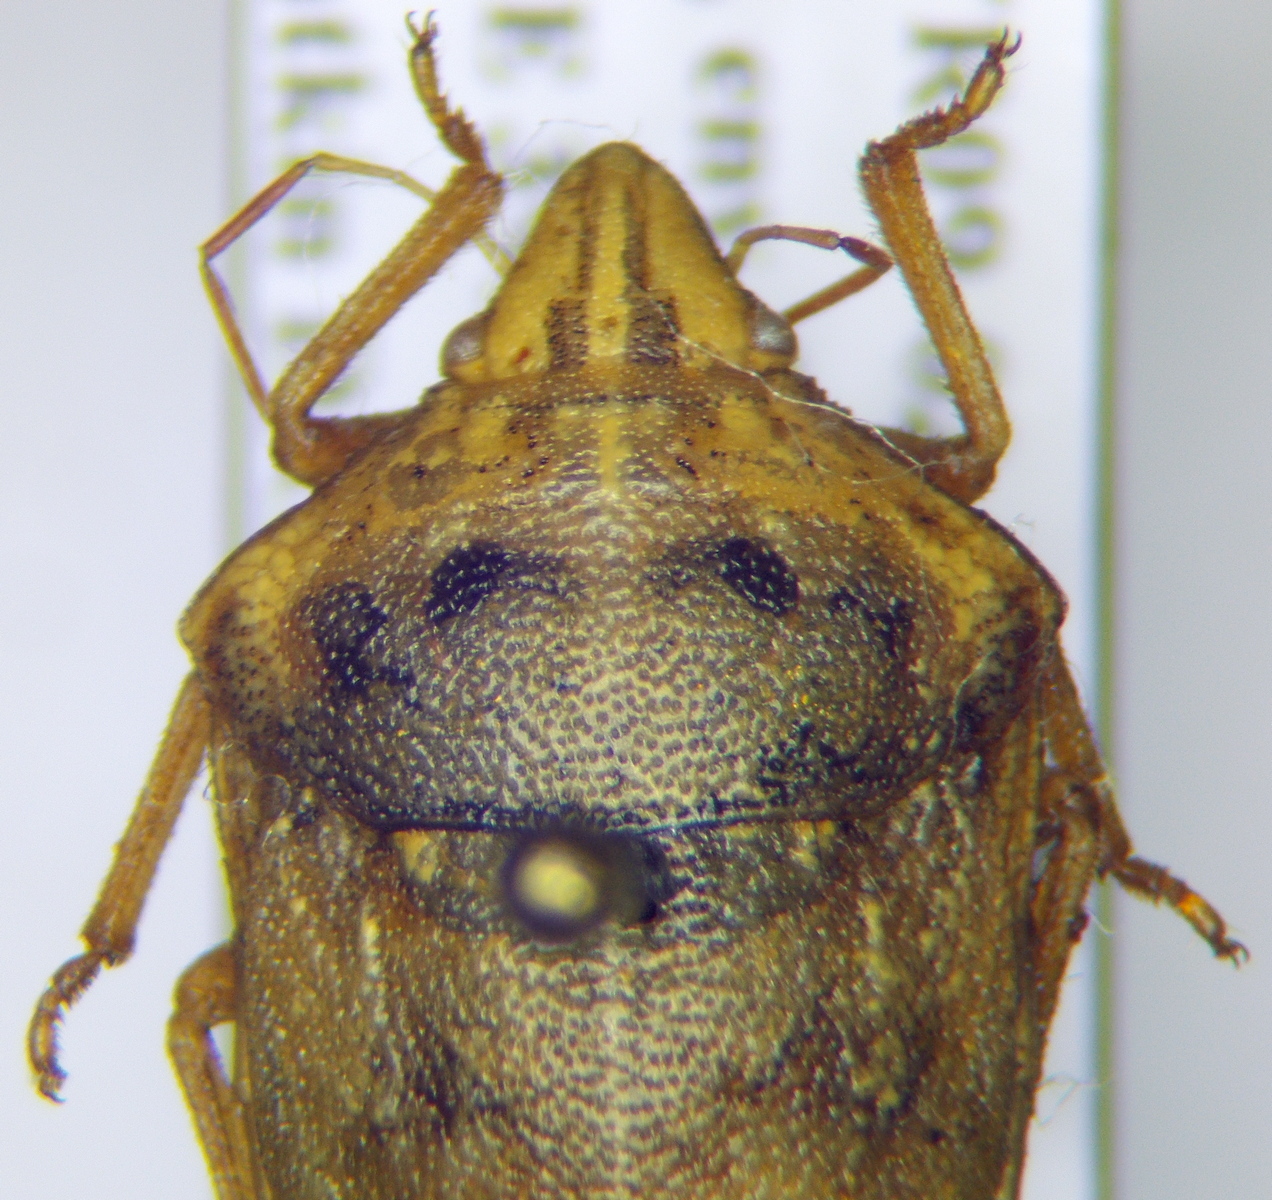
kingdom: Animalia
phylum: Arthropoda
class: Insecta
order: Hemiptera
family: Scutelleridae
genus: Odontotarsus
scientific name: Odontotarsus
